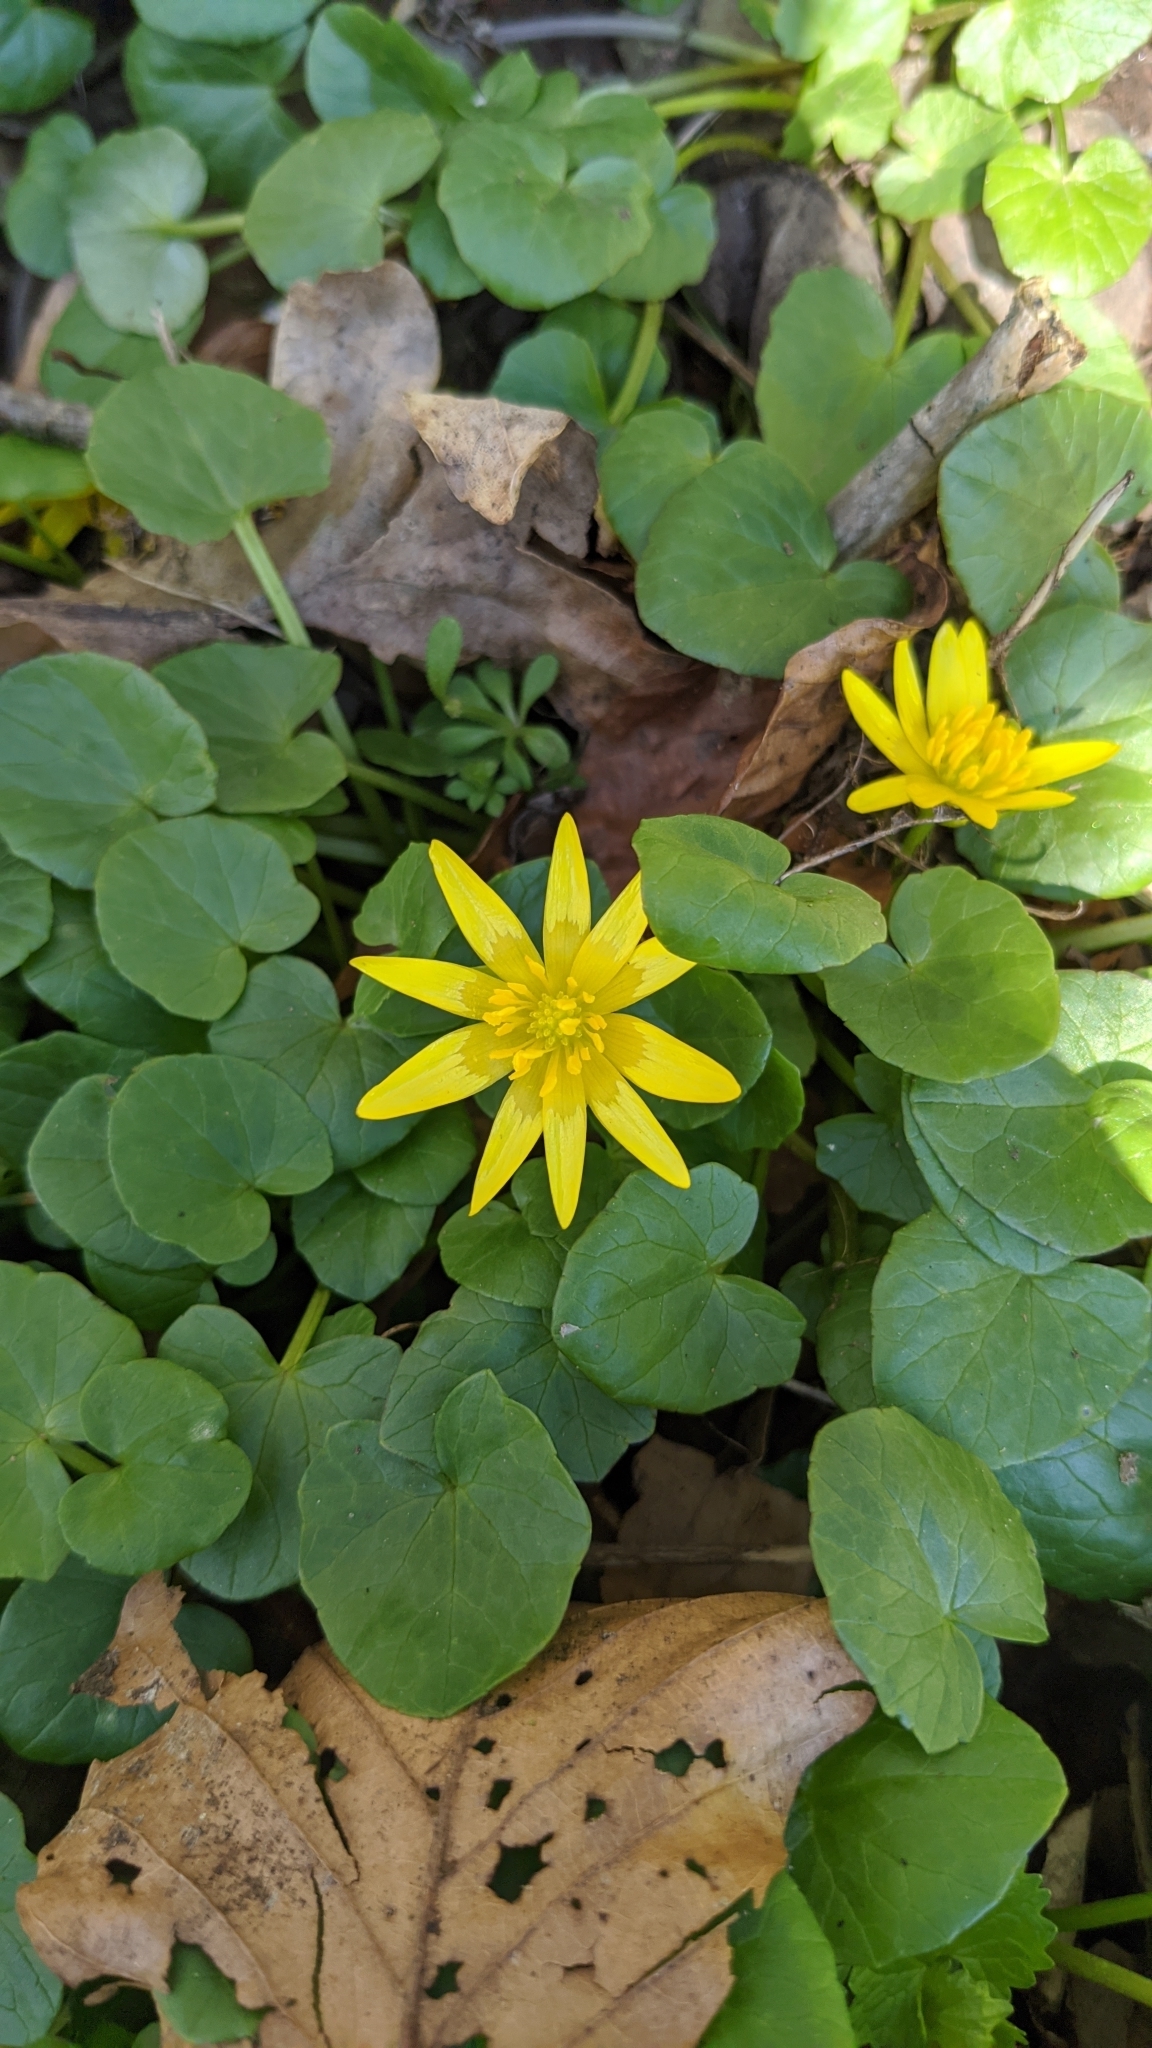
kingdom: Plantae
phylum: Tracheophyta
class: Magnoliopsida
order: Ranunculales
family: Ranunculaceae
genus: Ficaria
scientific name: Ficaria verna
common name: Lesser celandine
